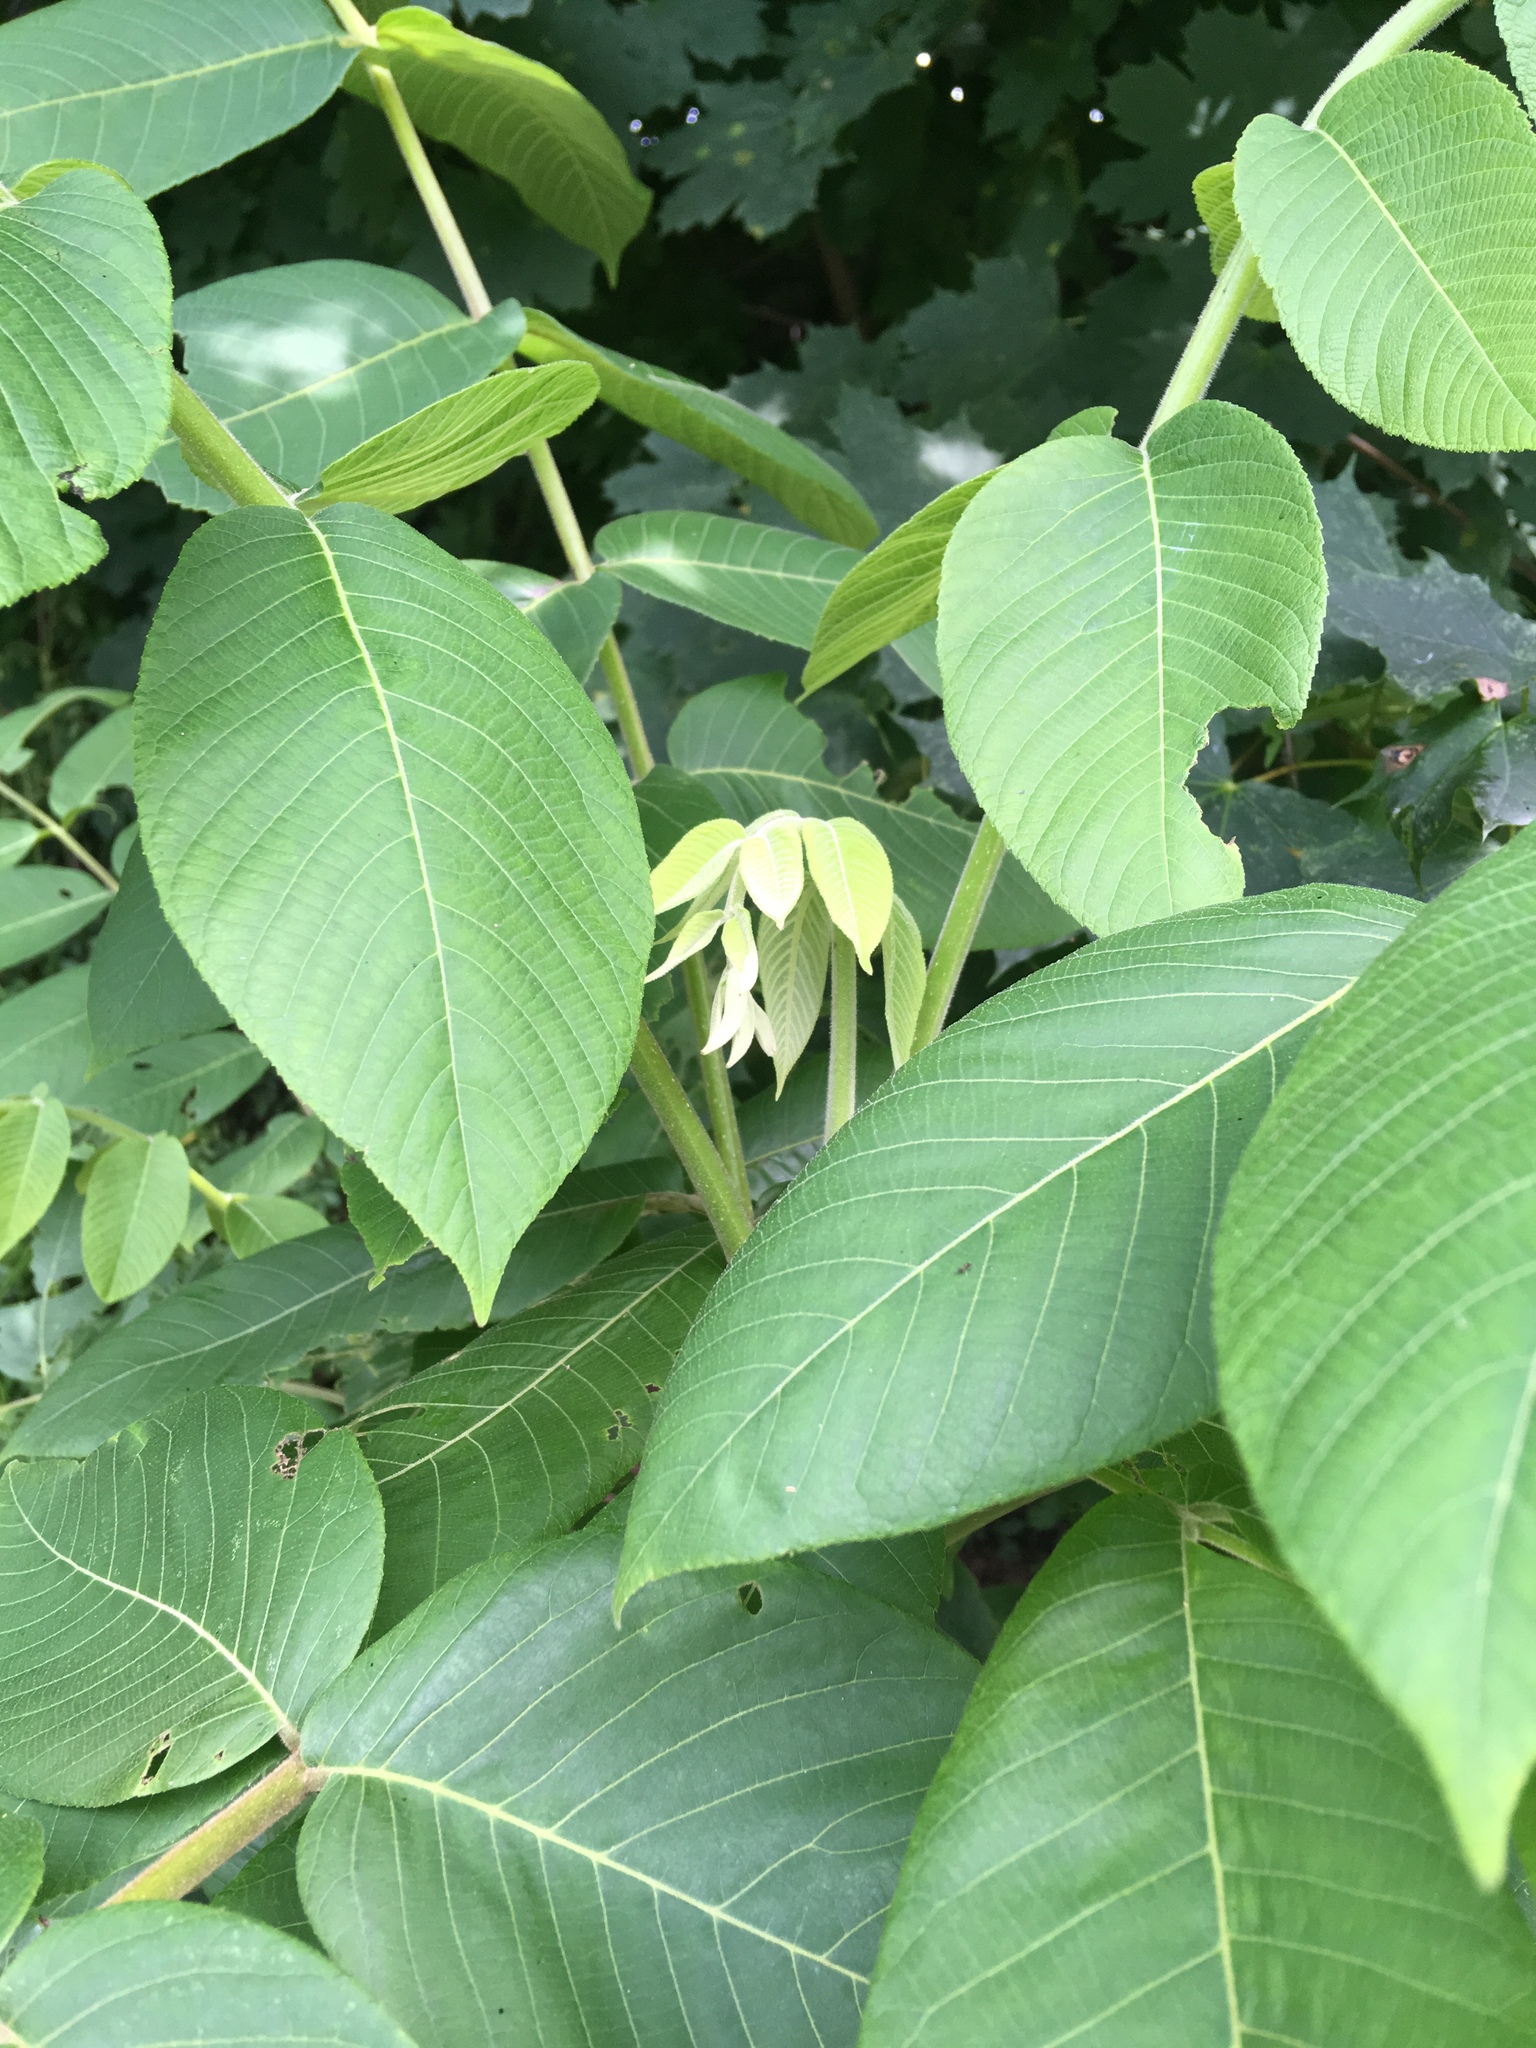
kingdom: Plantae
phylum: Tracheophyta
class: Magnoliopsida
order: Fagales
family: Juglandaceae
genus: Juglans
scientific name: Juglans cinerea
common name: Butternut
